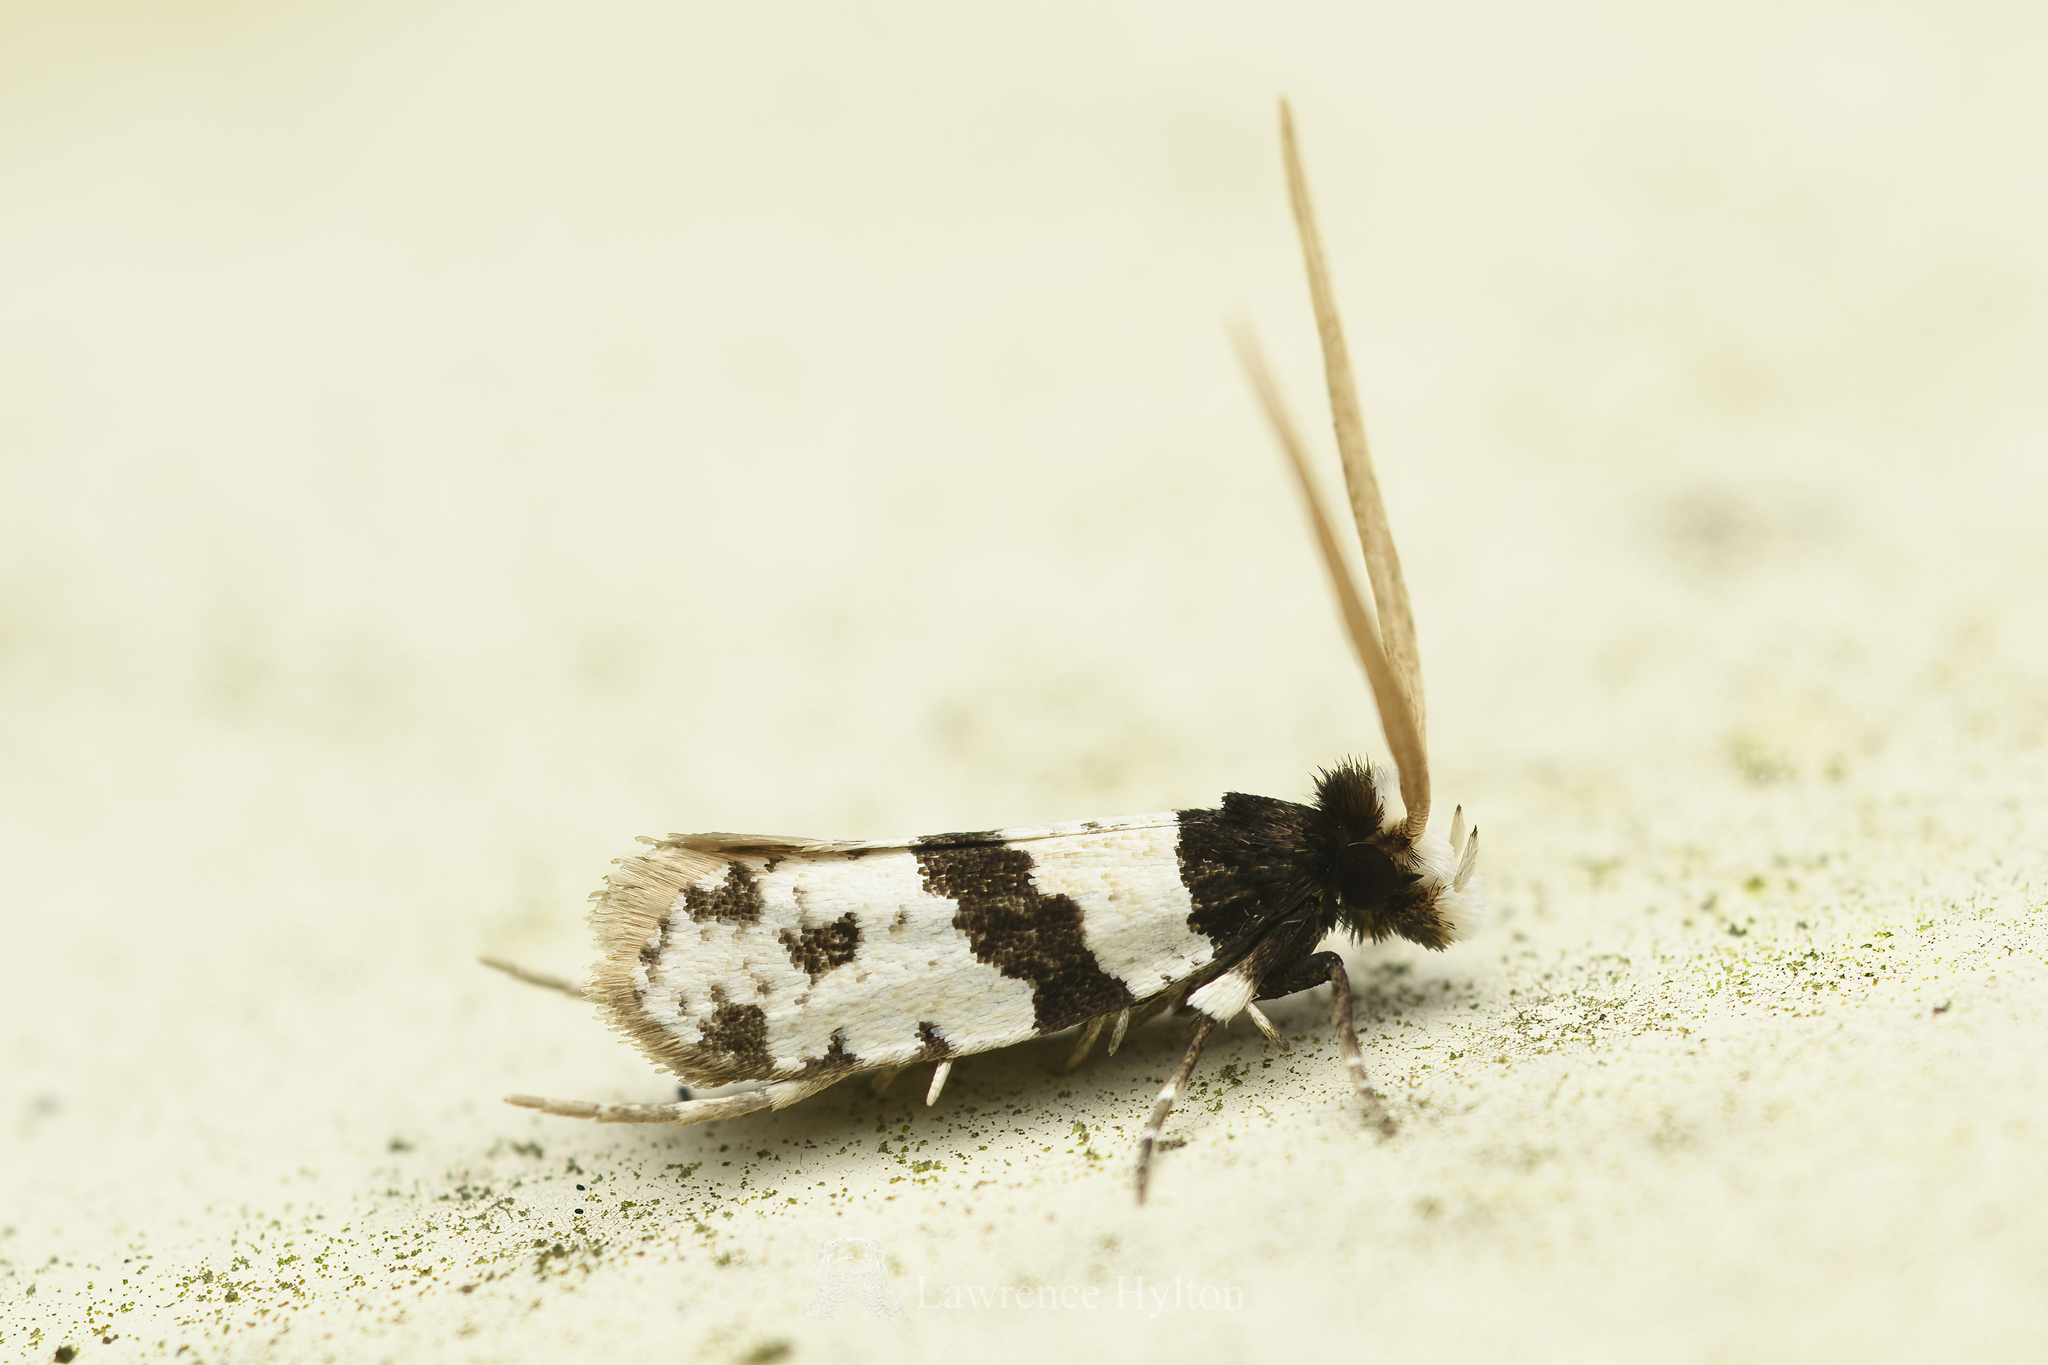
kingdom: Animalia
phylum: Arthropoda
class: Insecta
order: Lepidoptera
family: Tineidae
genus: Thisizima
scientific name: Thisizima fasciaria
